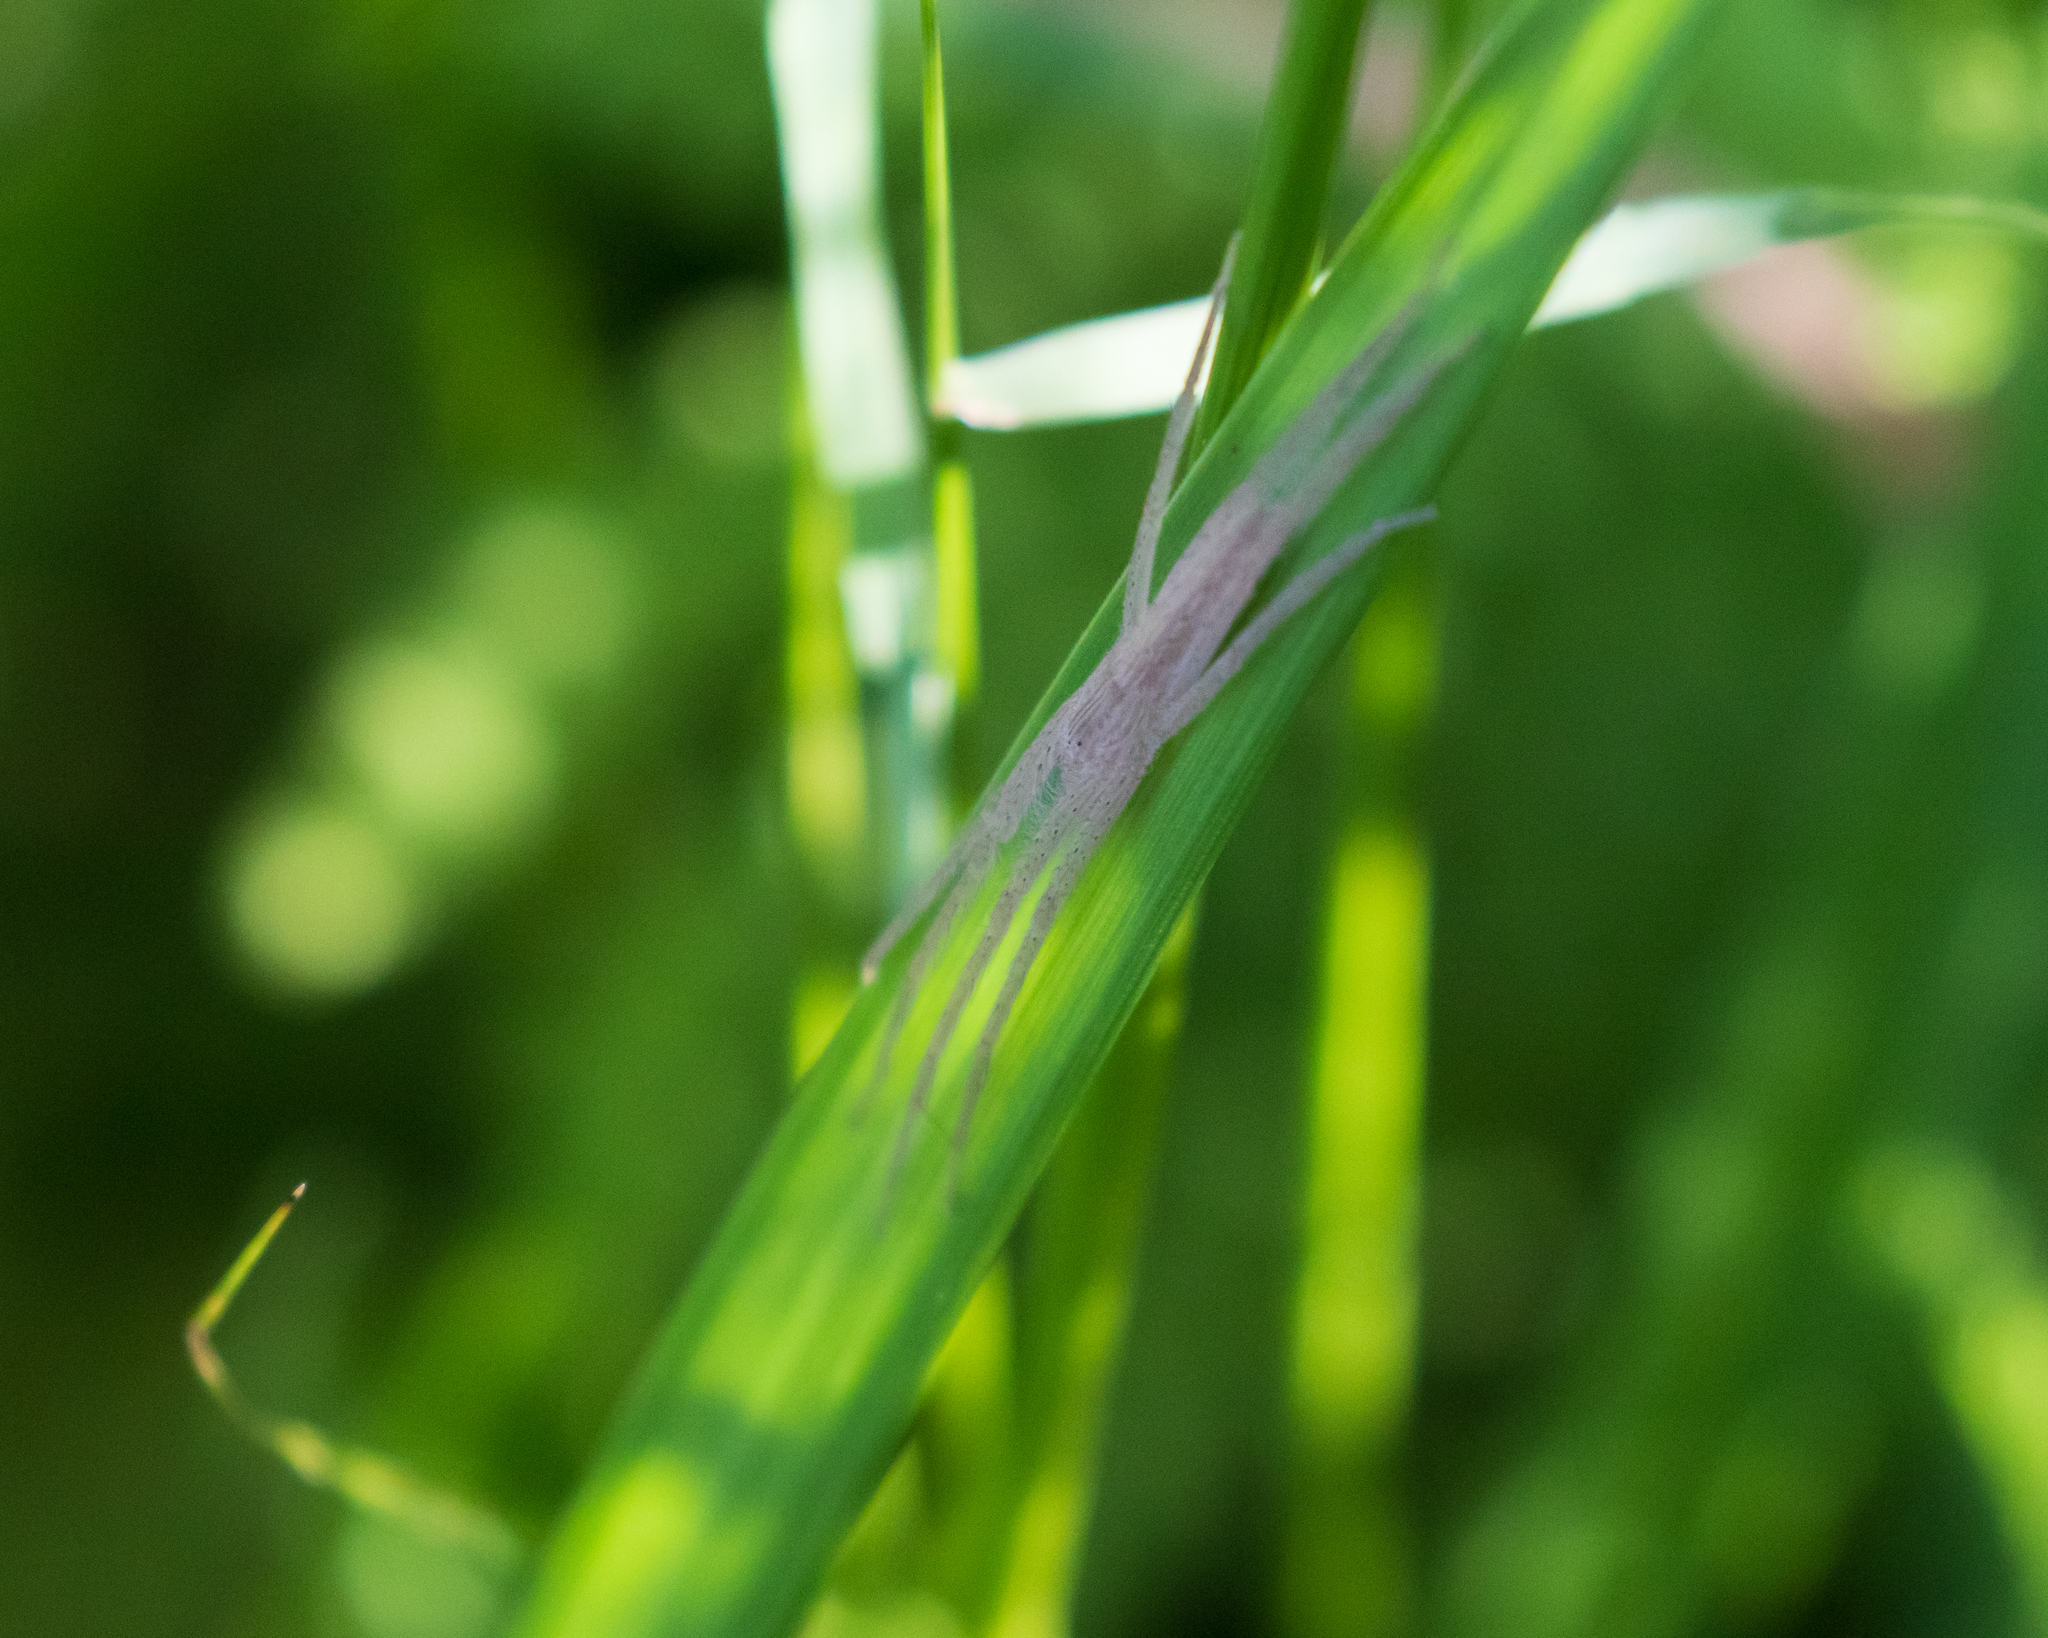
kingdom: Animalia
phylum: Arthropoda
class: Arachnida
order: Araneae
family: Pisauridae
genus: Pisaurina
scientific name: Pisaurina undulata
